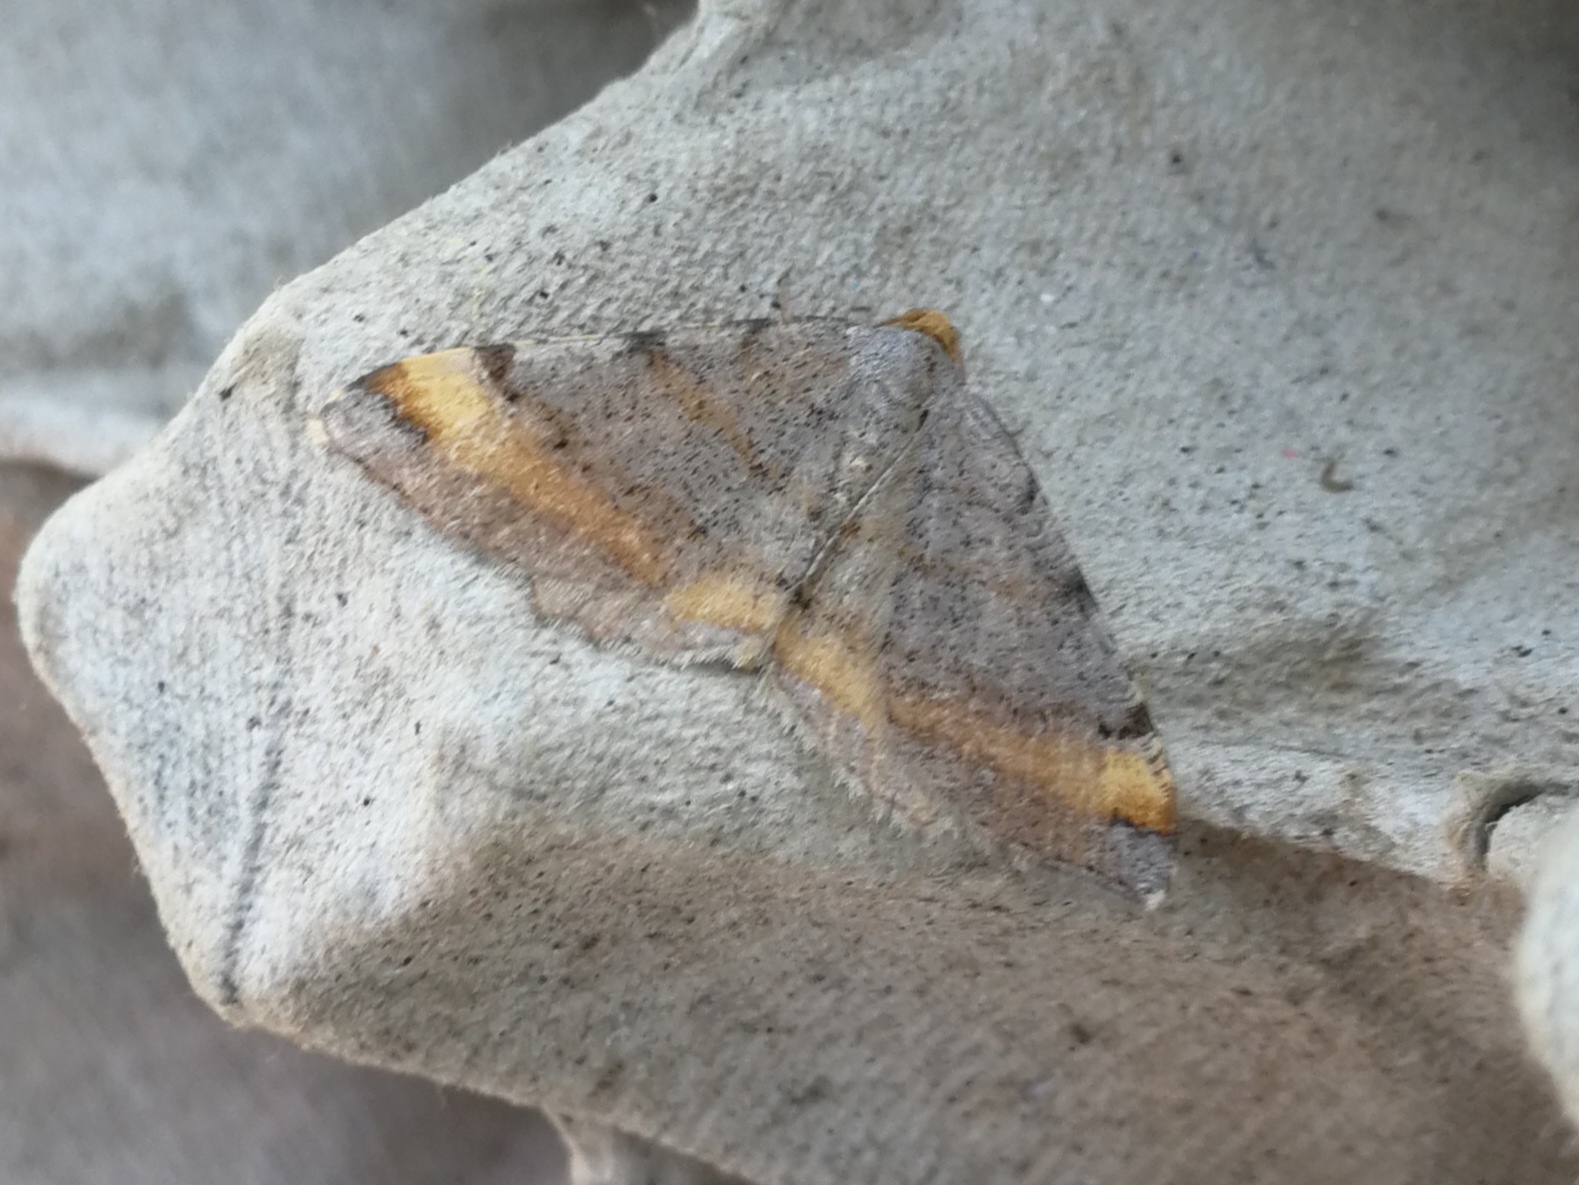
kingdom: Animalia
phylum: Arthropoda
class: Insecta
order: Lepidoptera
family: Geometridae
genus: Macaria
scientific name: Macaria liturata
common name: Tawny-barred angle
